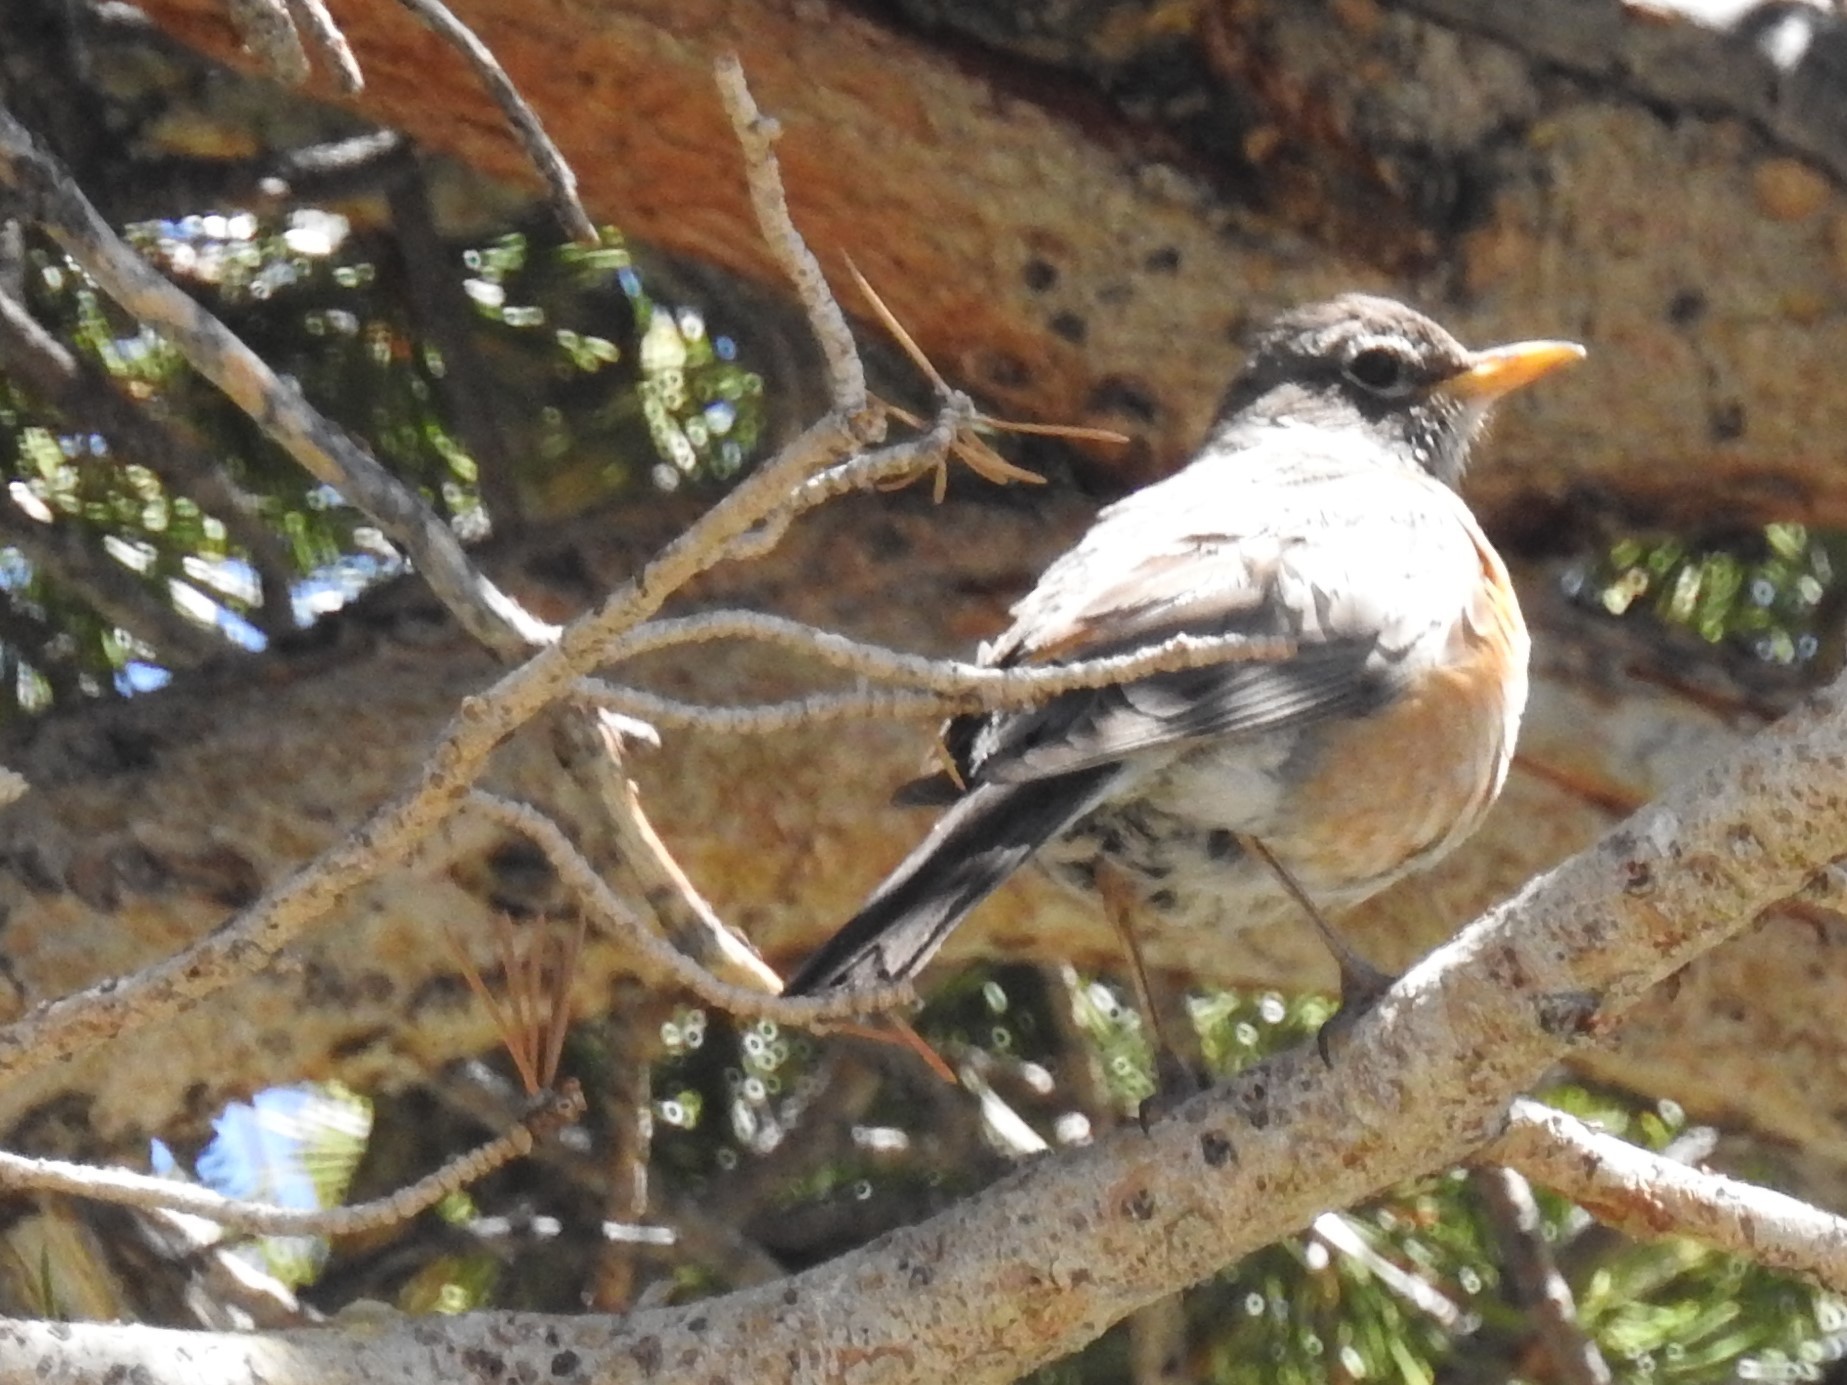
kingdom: Animalia
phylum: Chordata
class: Aves
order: Passeriformes
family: Turdidae
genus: Turdus
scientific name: Turdus migratorius
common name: American robin
